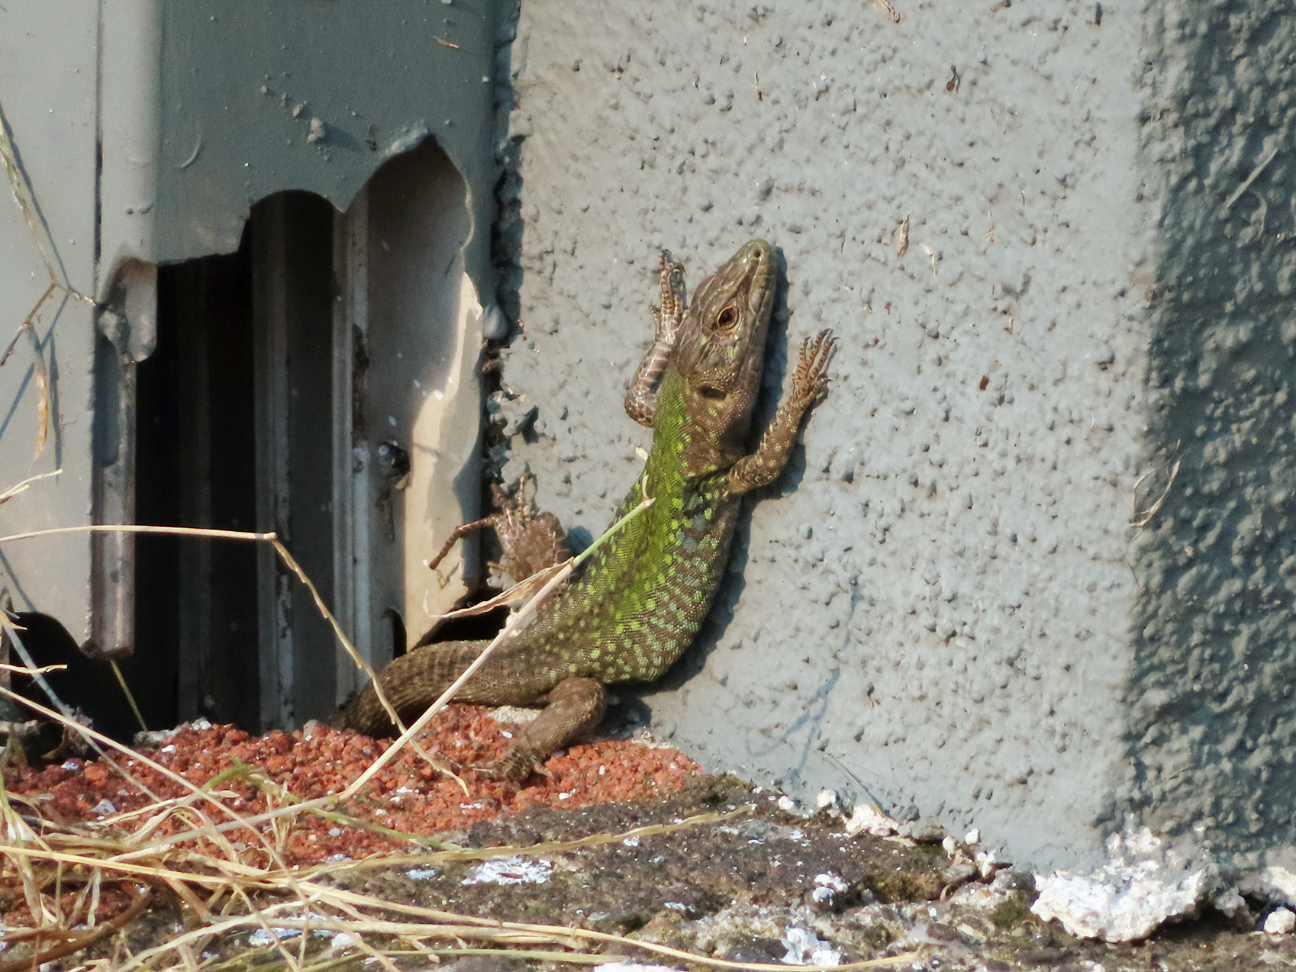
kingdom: Animalia
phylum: Chordata
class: Squamata
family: Lacertidae
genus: Podarcis
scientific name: Podarcis siculus
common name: Italian wall lizard
